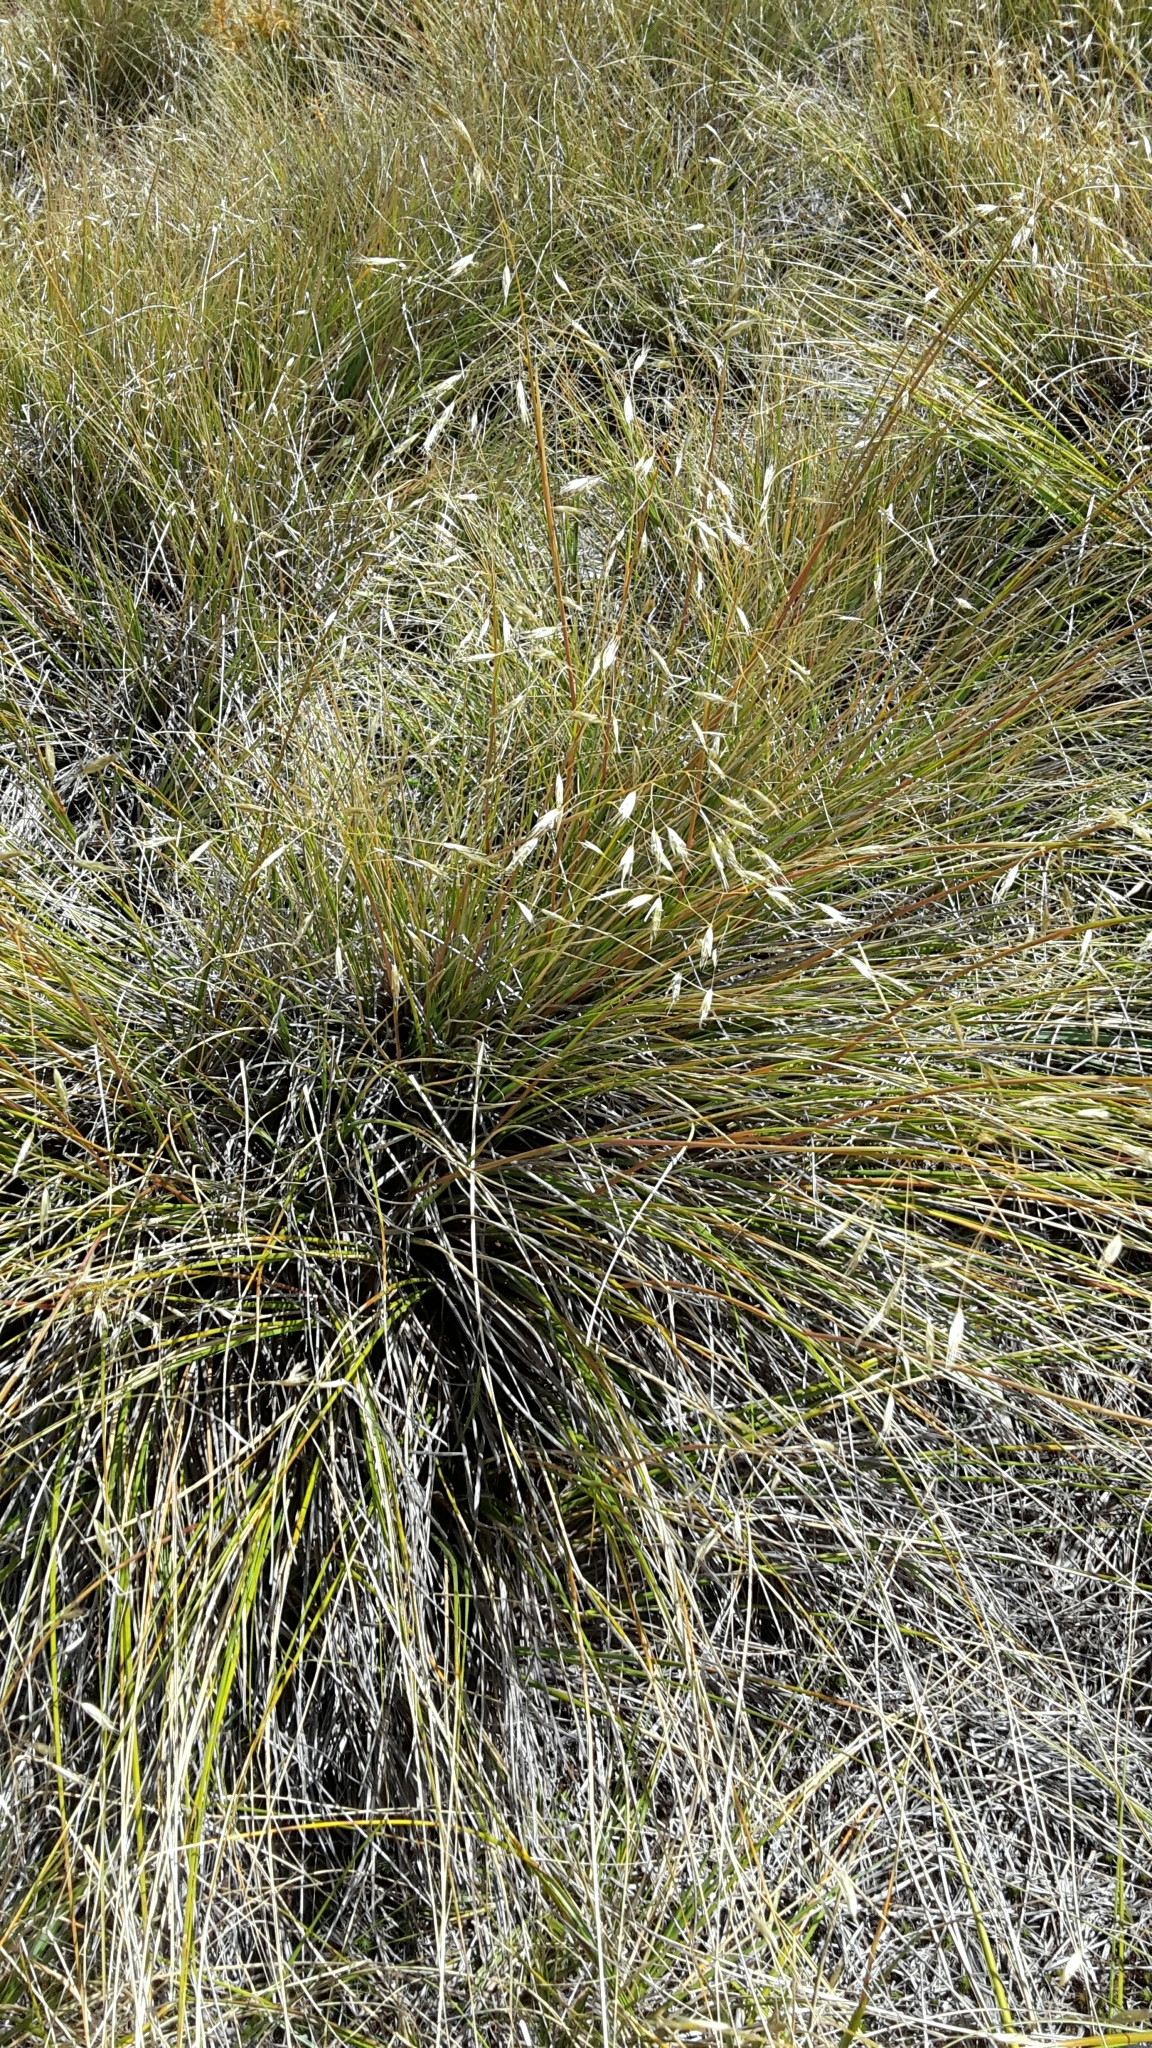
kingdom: Plantae
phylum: Tracheophyta
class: Liliopsida
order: Poales
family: Poaceae
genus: Chionochloa
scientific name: Chionochloa macra
